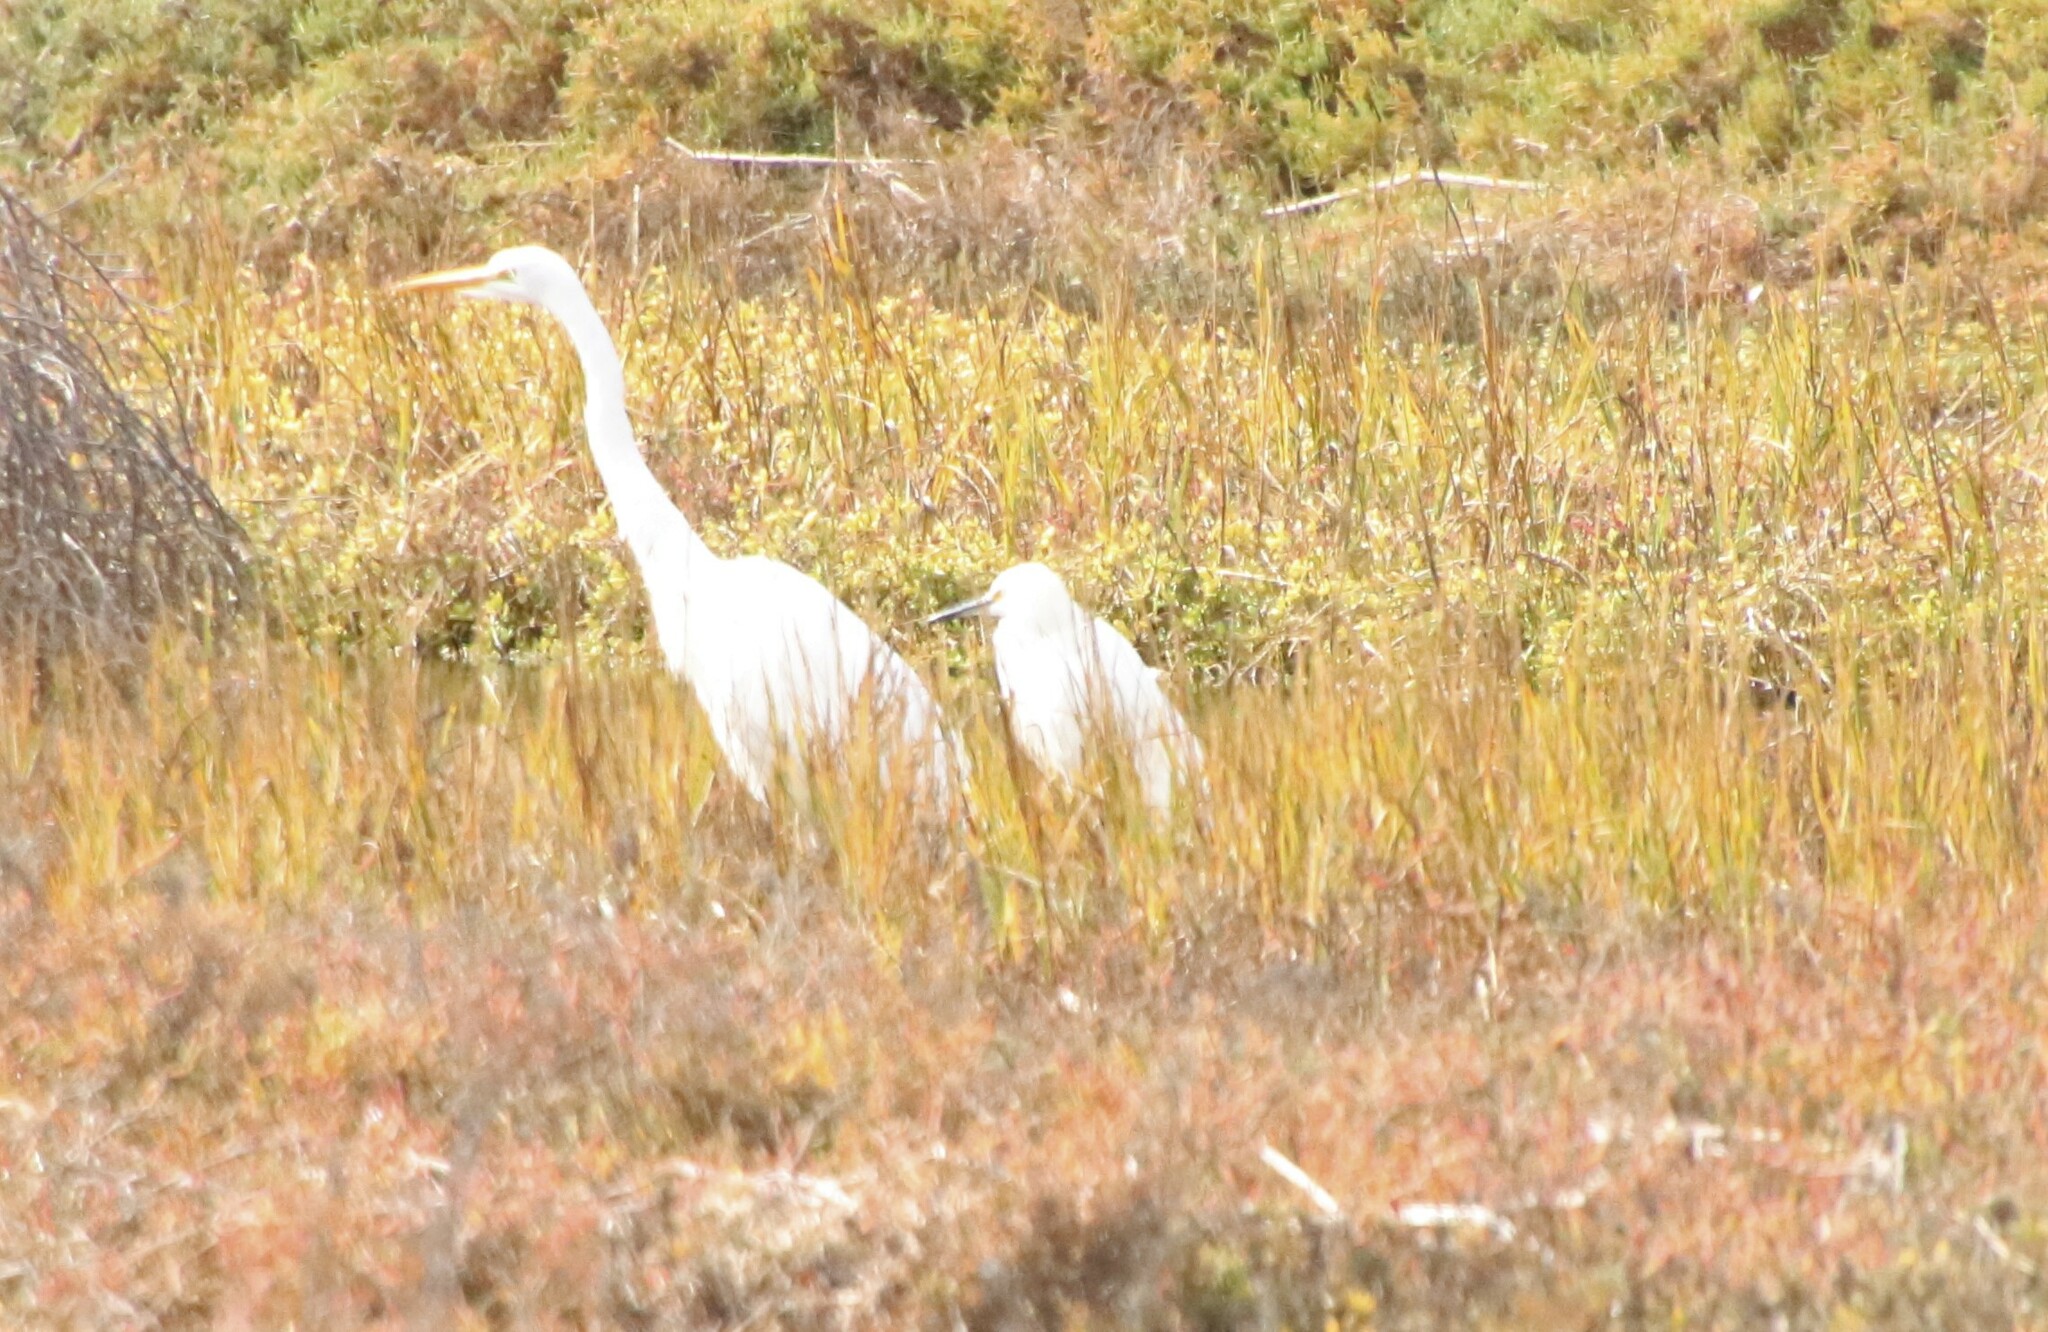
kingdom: Animalia
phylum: Chordata
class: Aves
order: Pelecaniformes
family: Ardeidae
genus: Egretta
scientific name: Egretta thula
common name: Snowy egret
